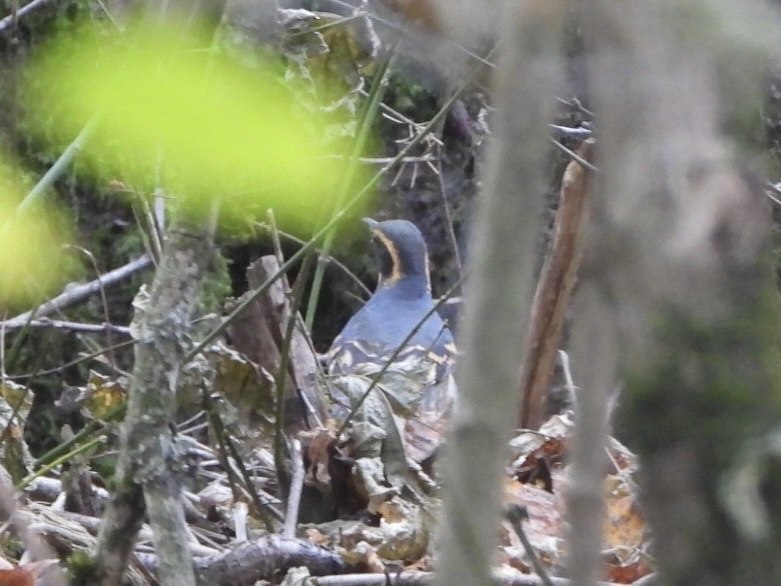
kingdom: Animalia
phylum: Chordata
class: Aves
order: Passeriformes
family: Turdidae
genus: Ixoreus
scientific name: Ixoreus naevius
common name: Varied thrush
